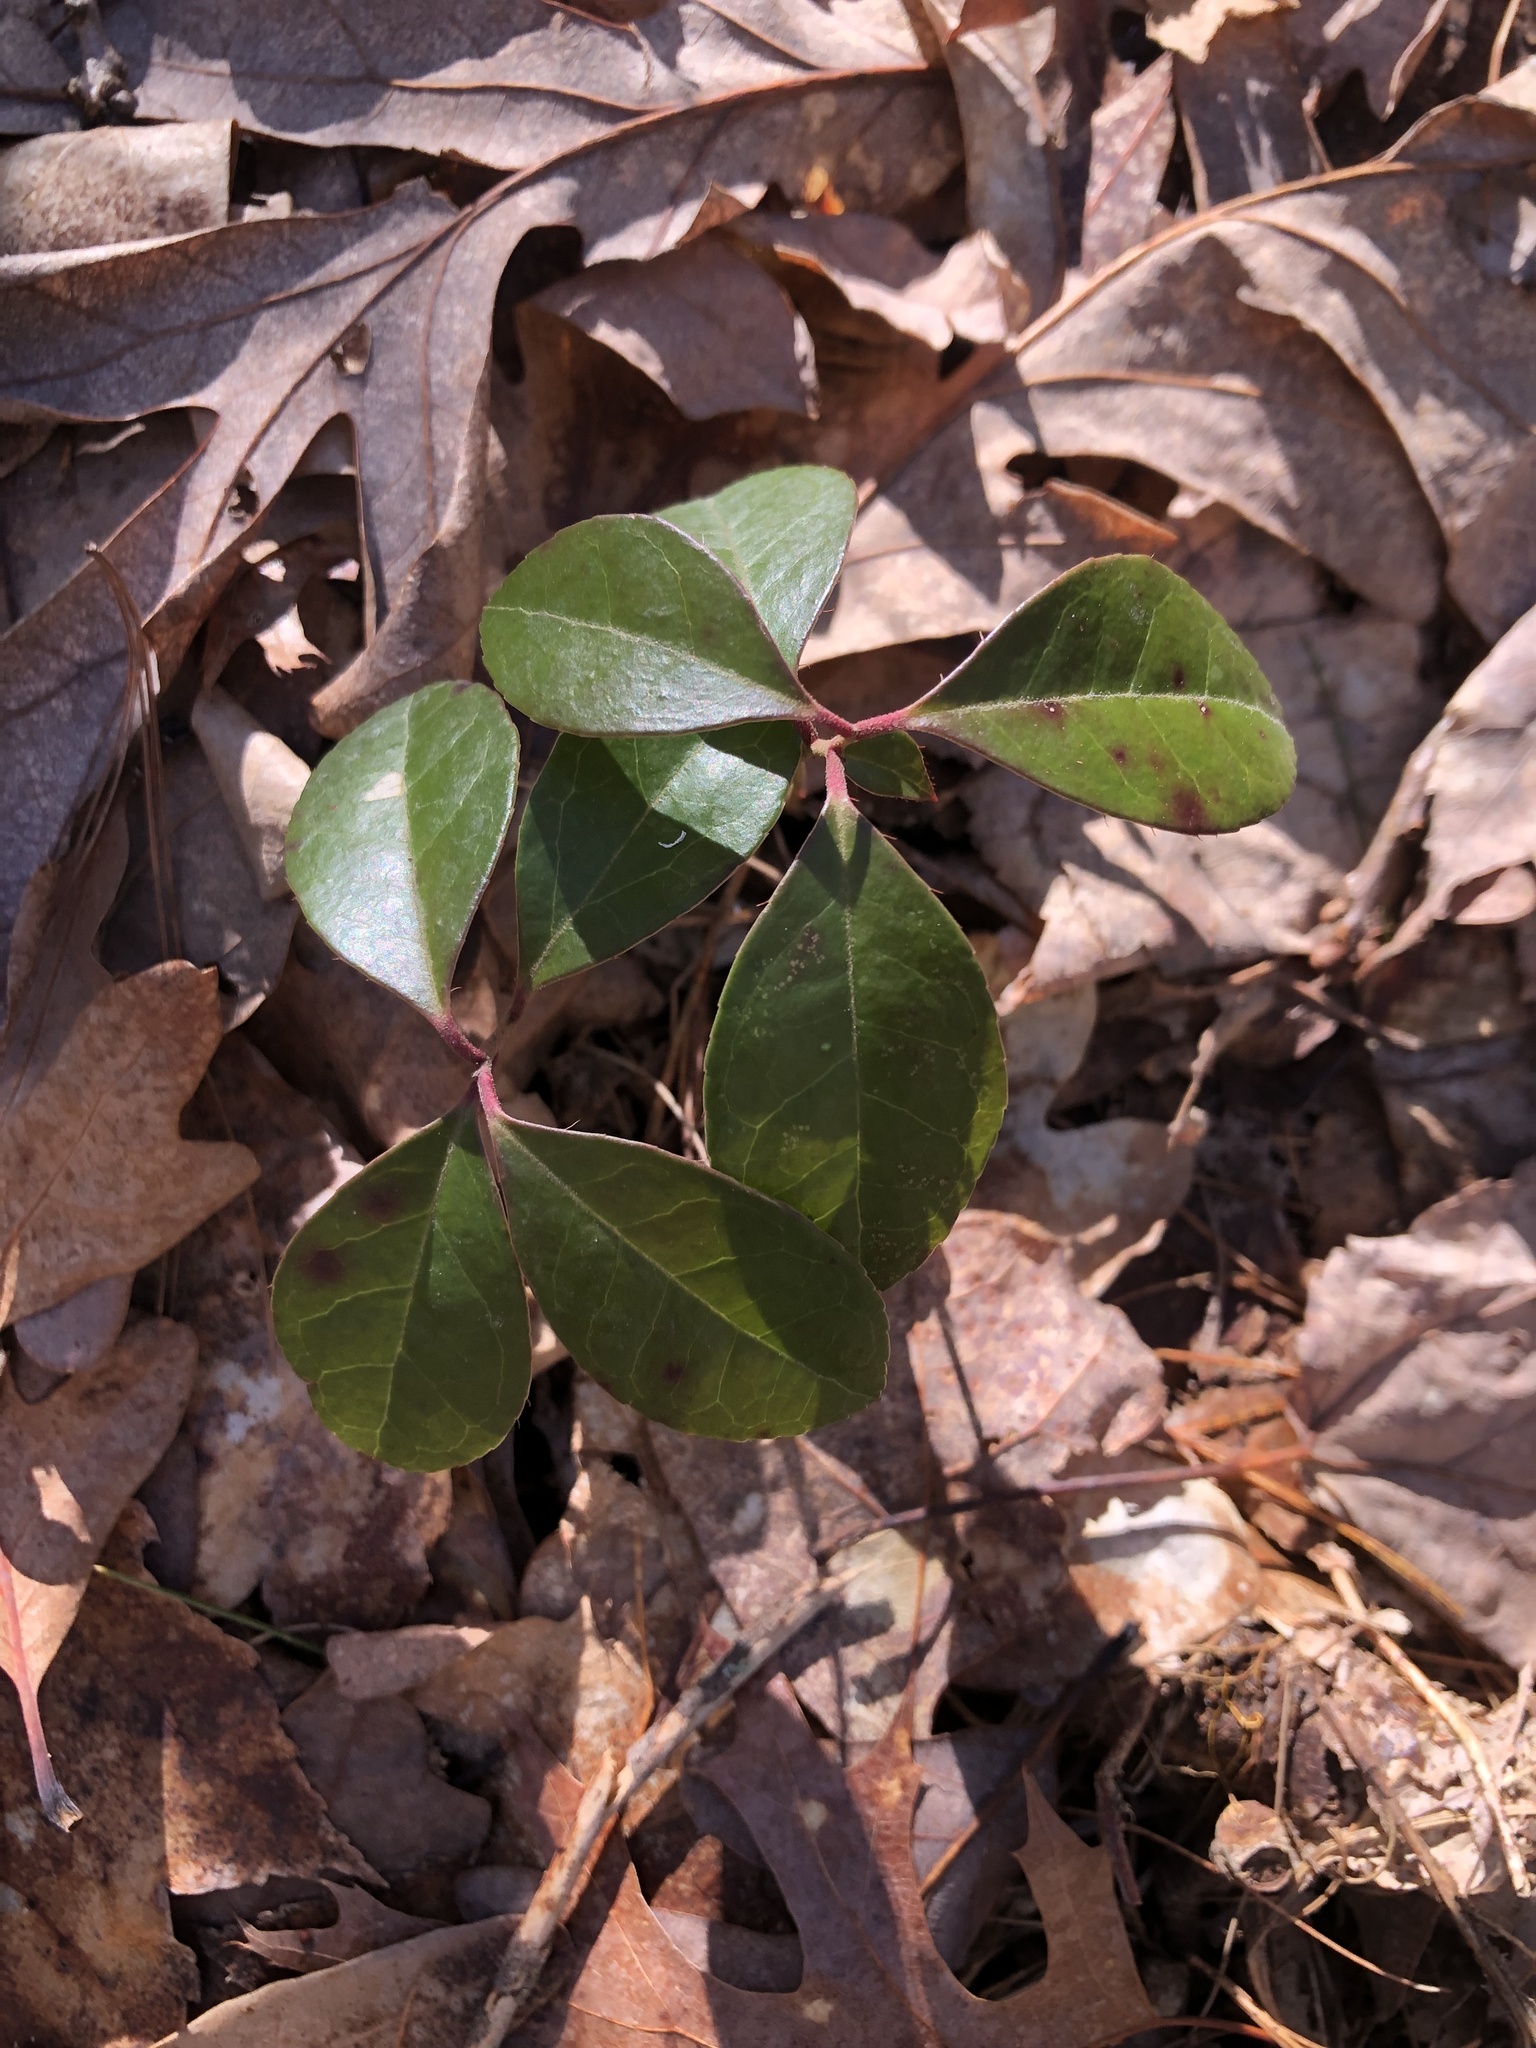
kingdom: Plantae
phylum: Tracheophyta
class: Magnoliopsida
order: Ericales
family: Ericaceae
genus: Gaultheria
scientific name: Gaultheria procumbens
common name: Checkerberry
